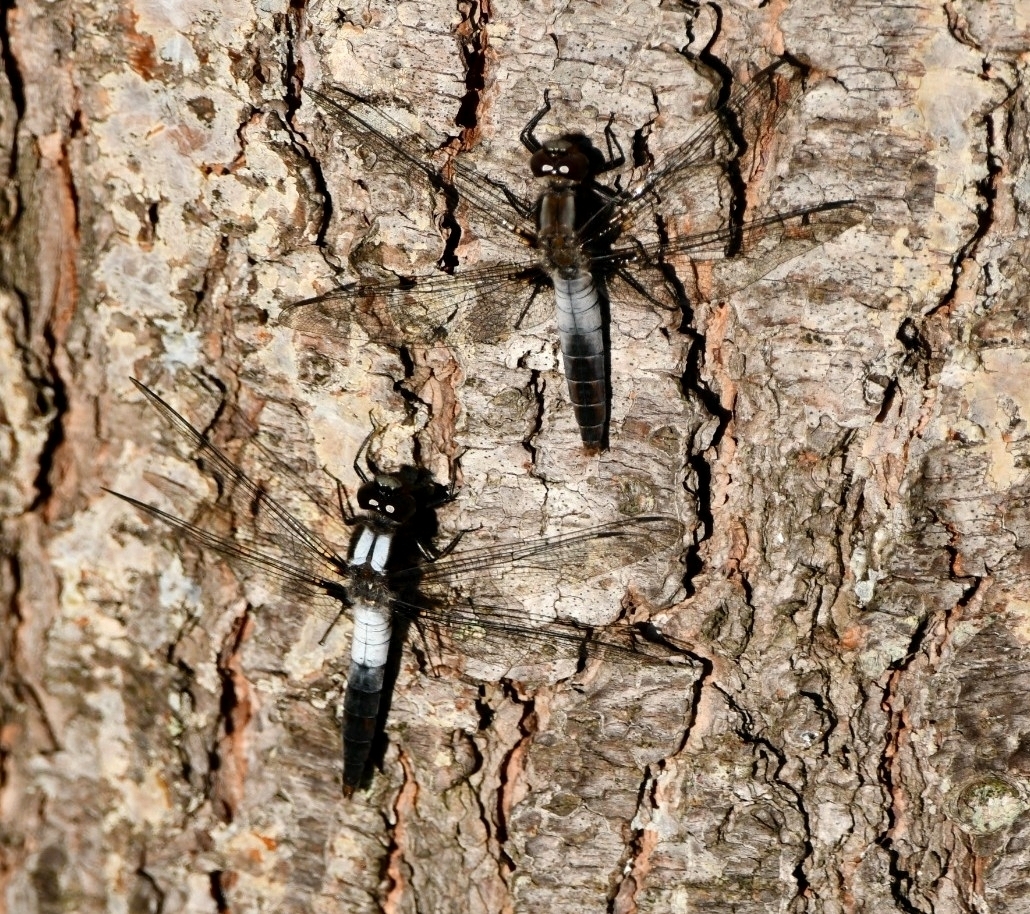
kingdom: Animalia
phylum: Arthropoda
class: Insecta
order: Odonata
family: Libellulidae
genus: Ladona
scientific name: Ladona julia
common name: Chalk-fronted corporal
